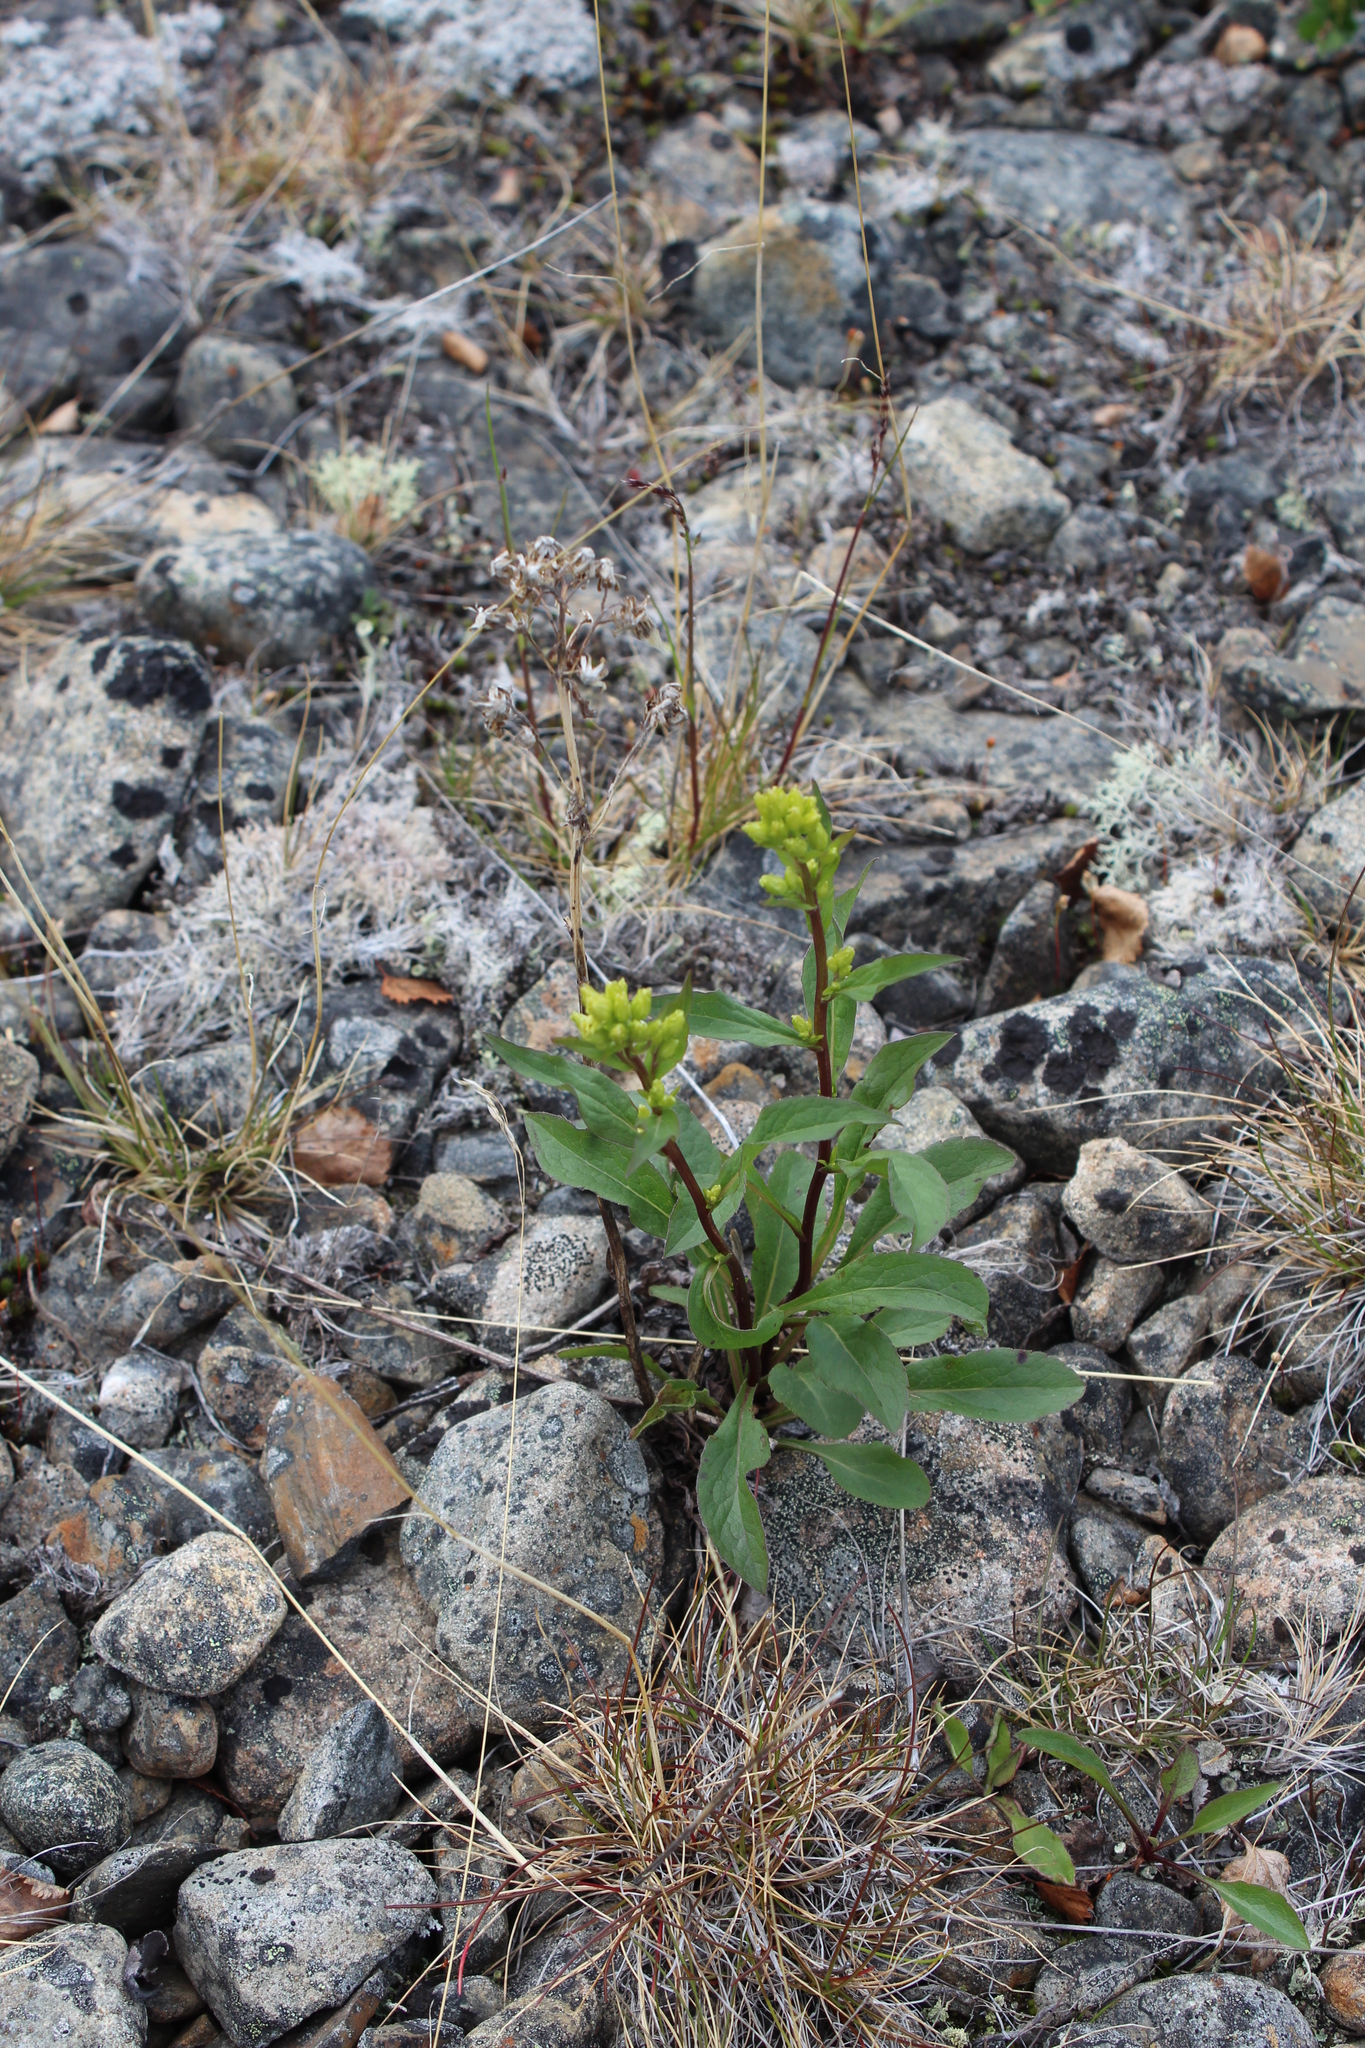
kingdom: Plantae
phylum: Tracheophyta
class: Magnoliopsida
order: Asterales
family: Asteraceae
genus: Solidago
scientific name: Solidago virgaurea
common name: Goldenrod
